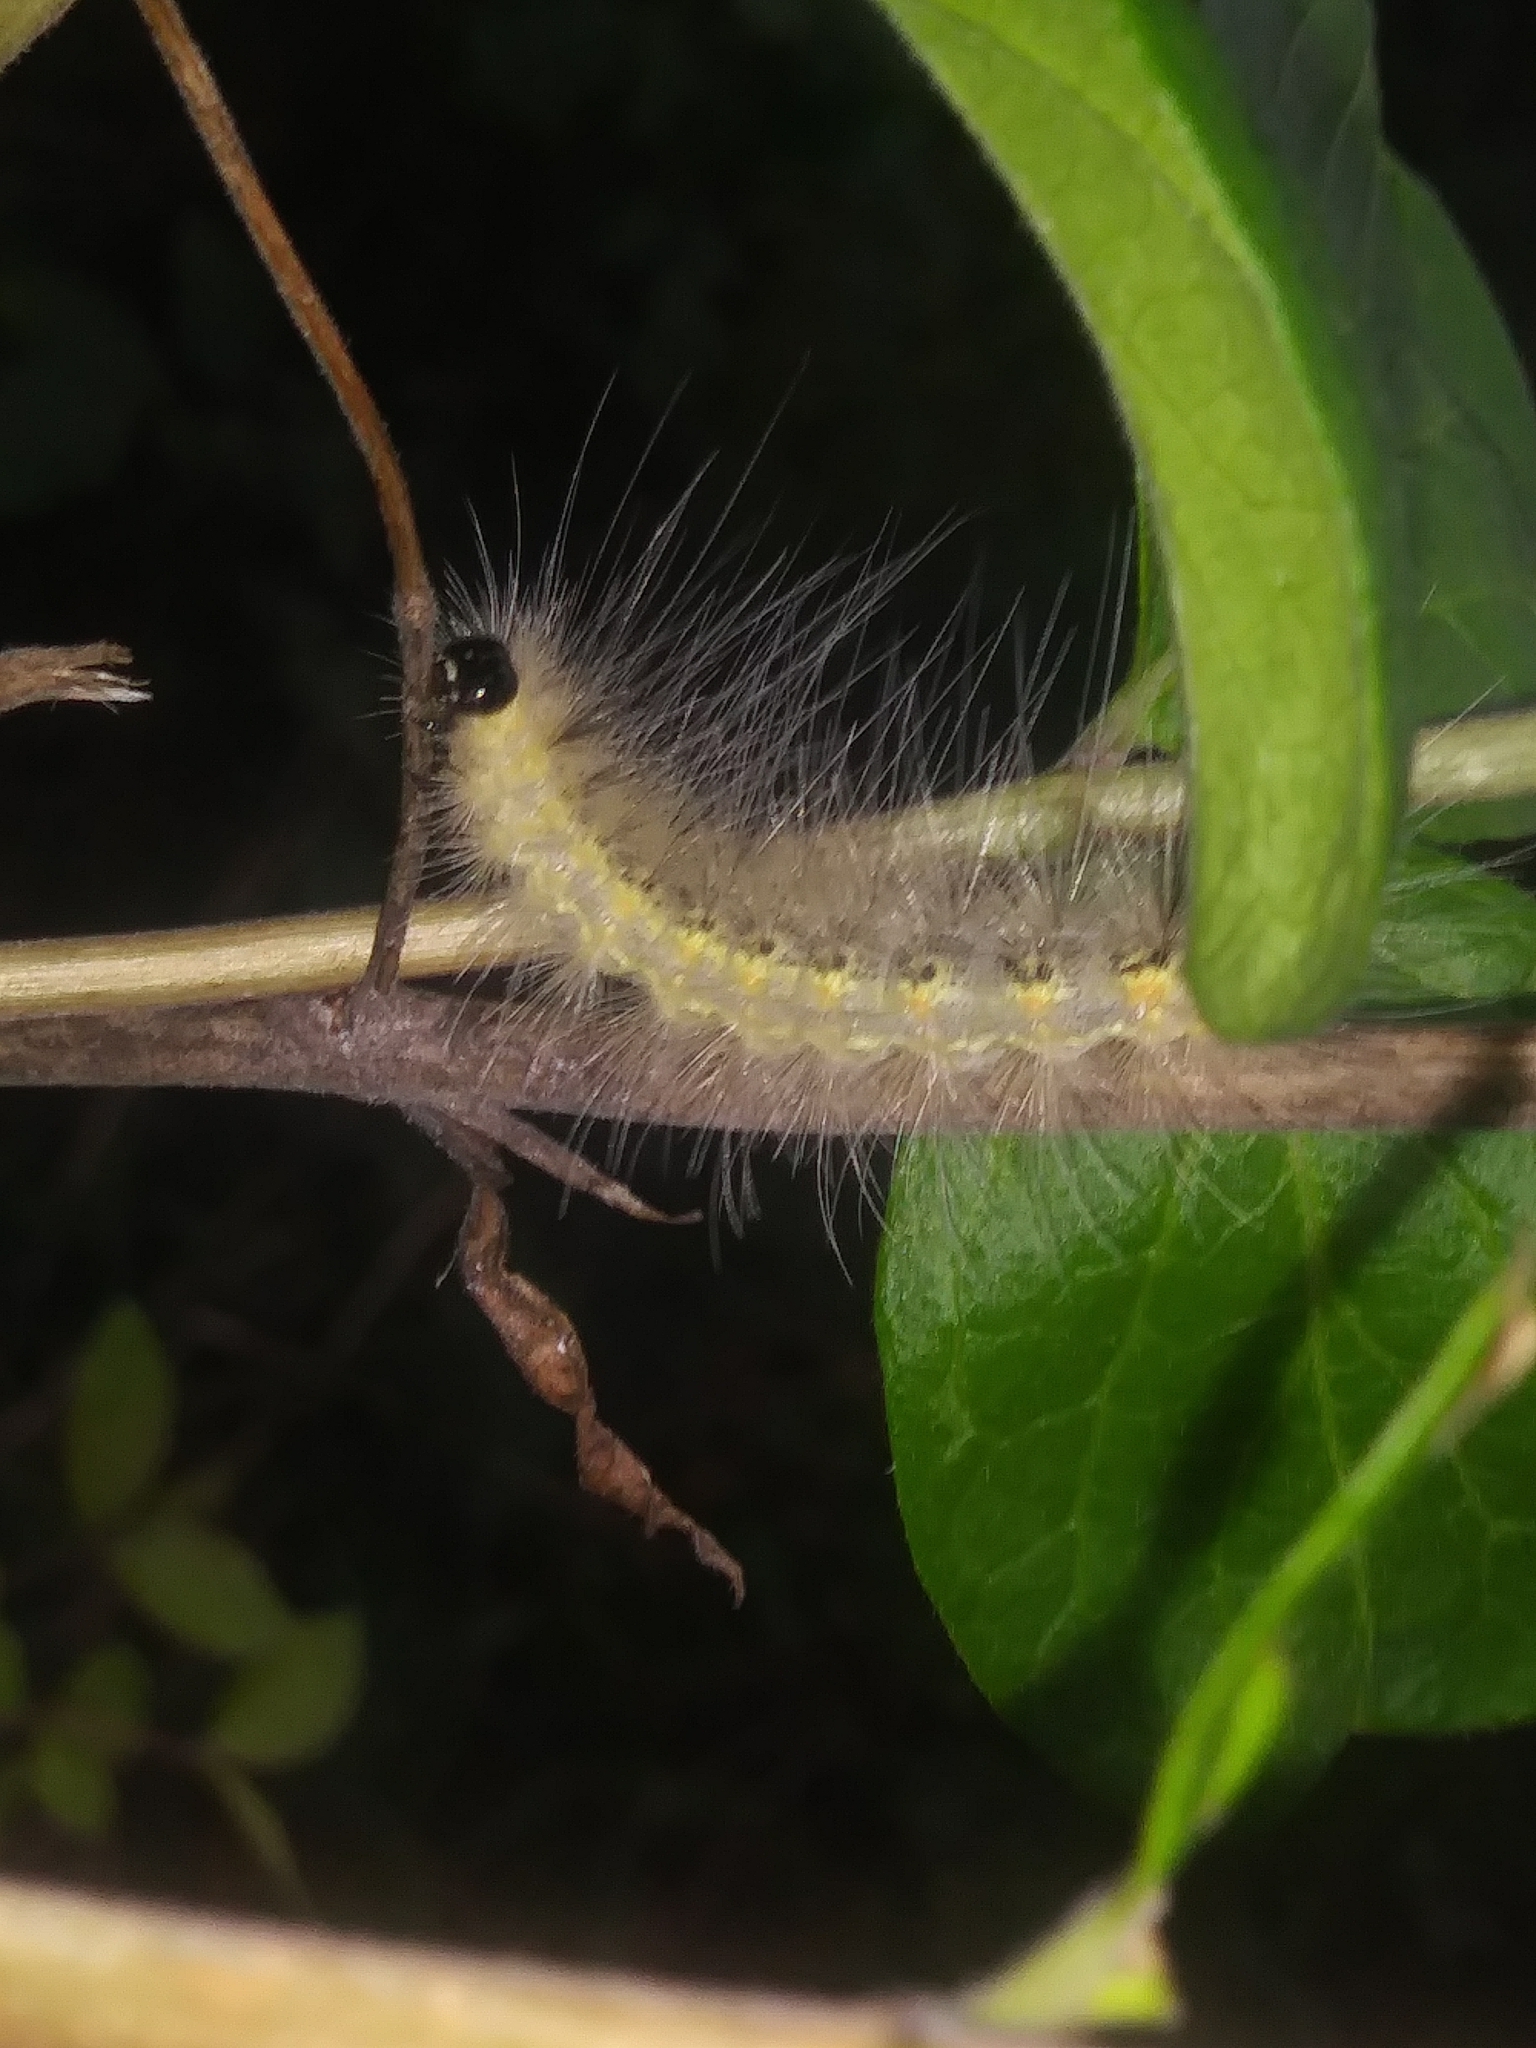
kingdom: Animalia
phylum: Arthropoda
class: Insecta
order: Lepidoptera
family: Erebidae
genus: Hyphantria
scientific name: Hyphantria cunea
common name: American white moth
